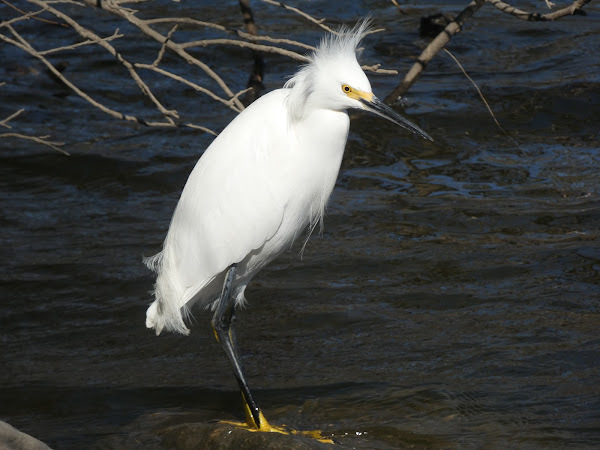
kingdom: Animalia
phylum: Chordata
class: Aves
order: Pelecaniformes
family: Ardeidae
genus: Egretta
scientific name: Egretta thula
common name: Snowy egret
